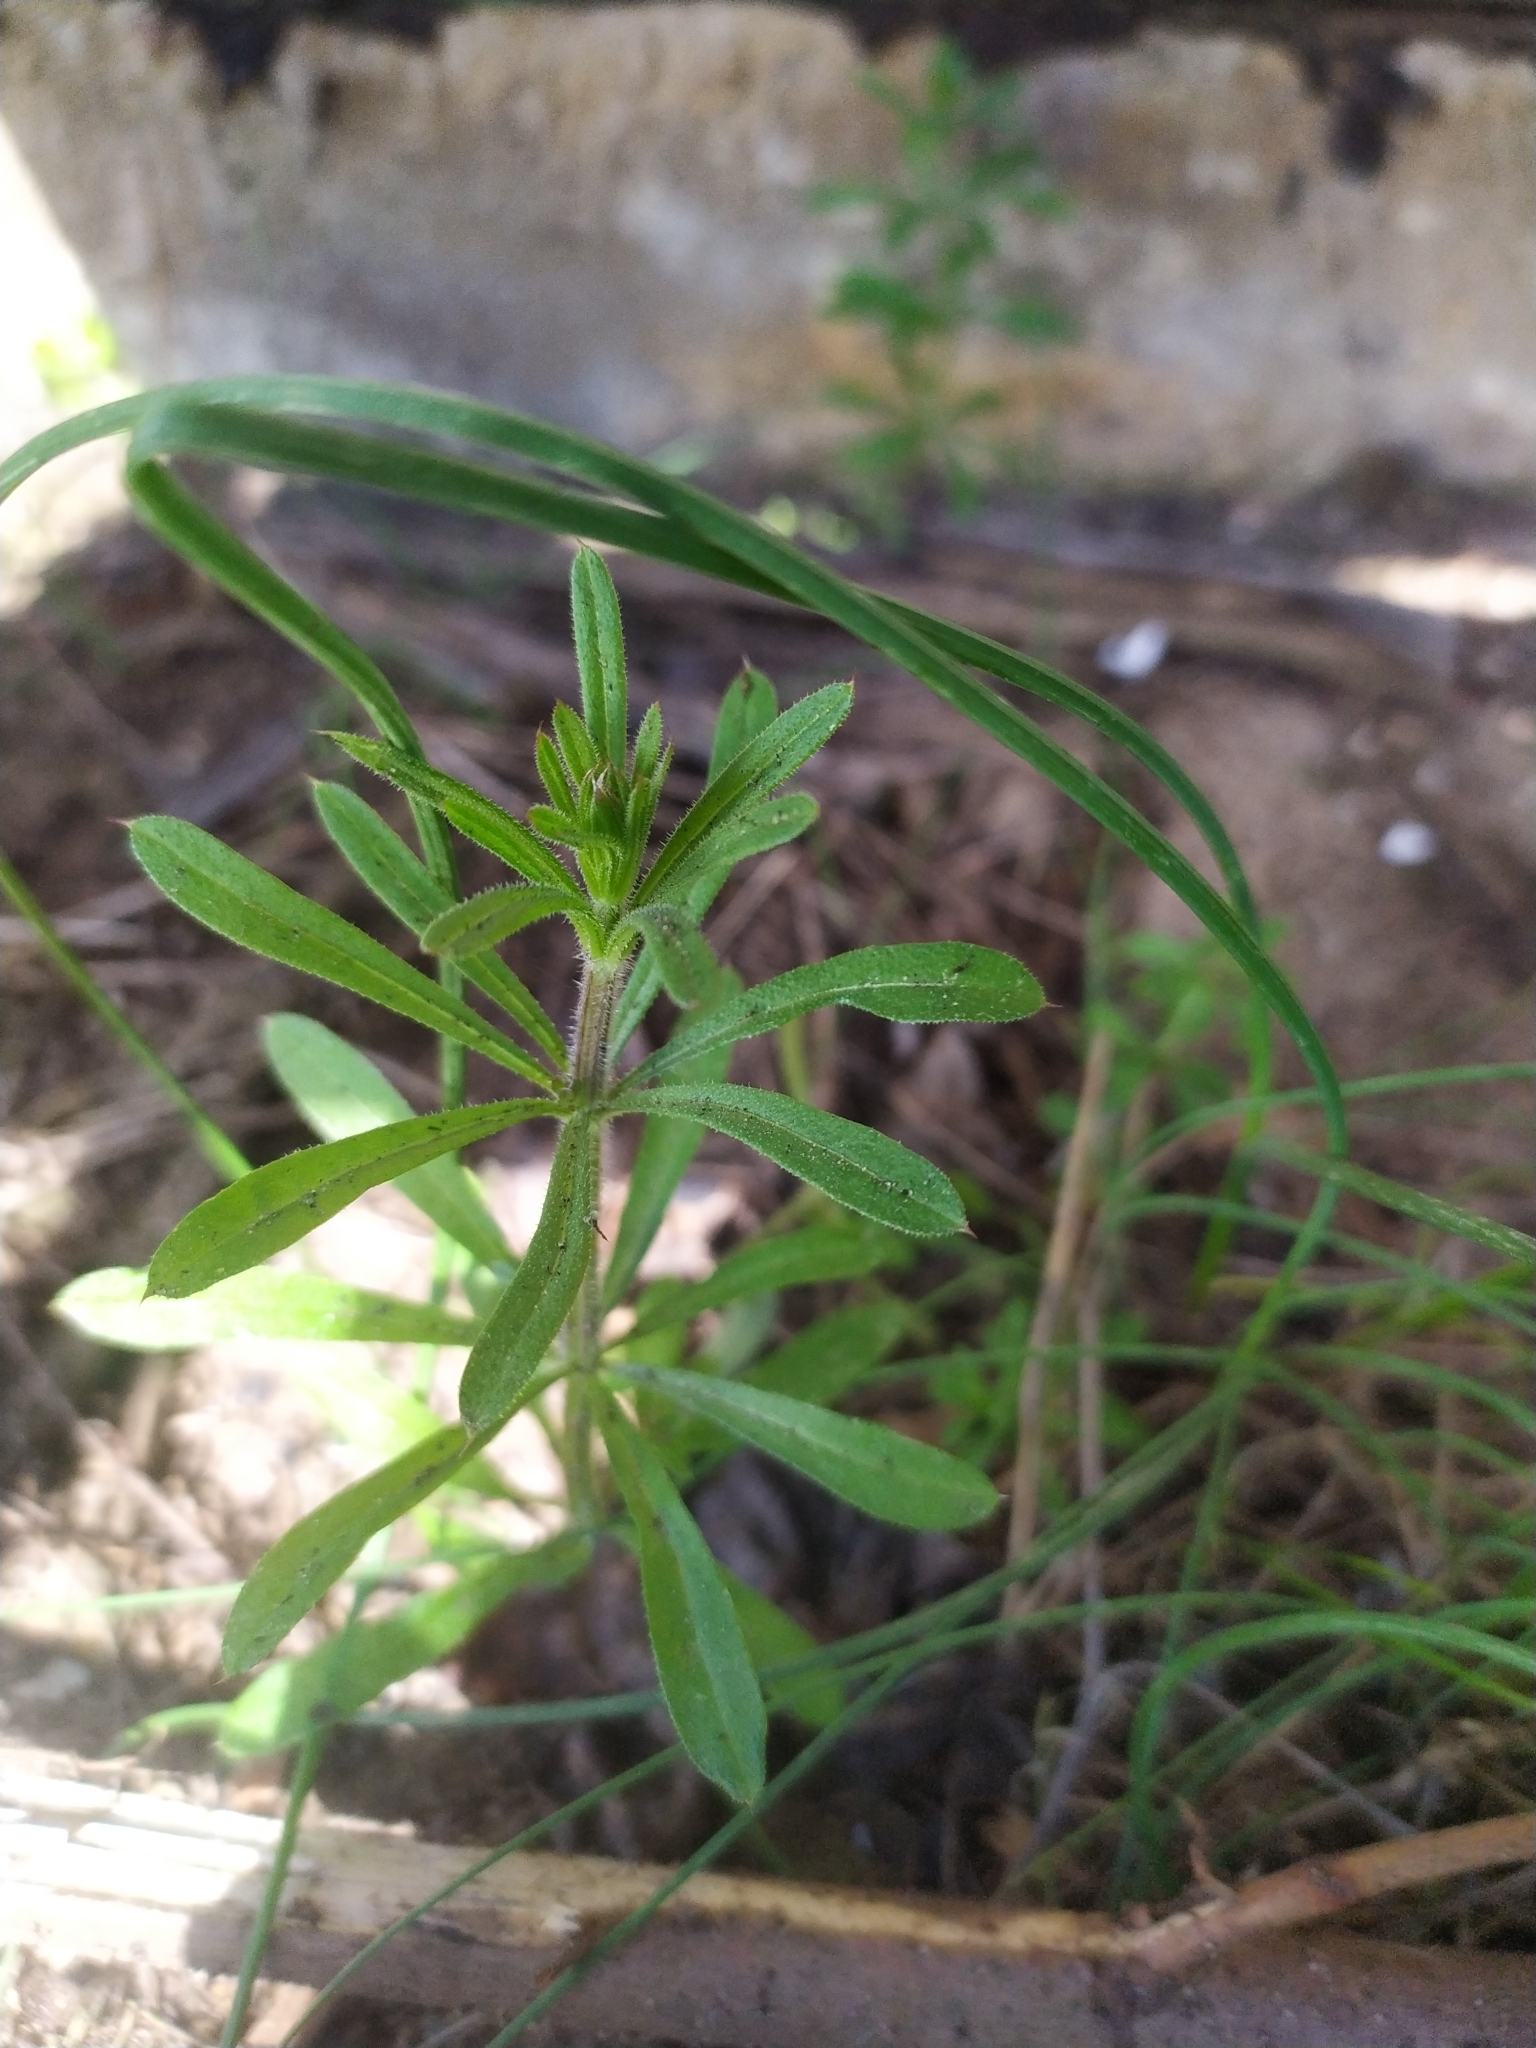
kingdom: Plantae
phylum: Tracheophyta
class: Magnoliopsida
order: Gentianales
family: Rubiaceae
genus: Galium
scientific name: Galium aparine
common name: Cleavers
